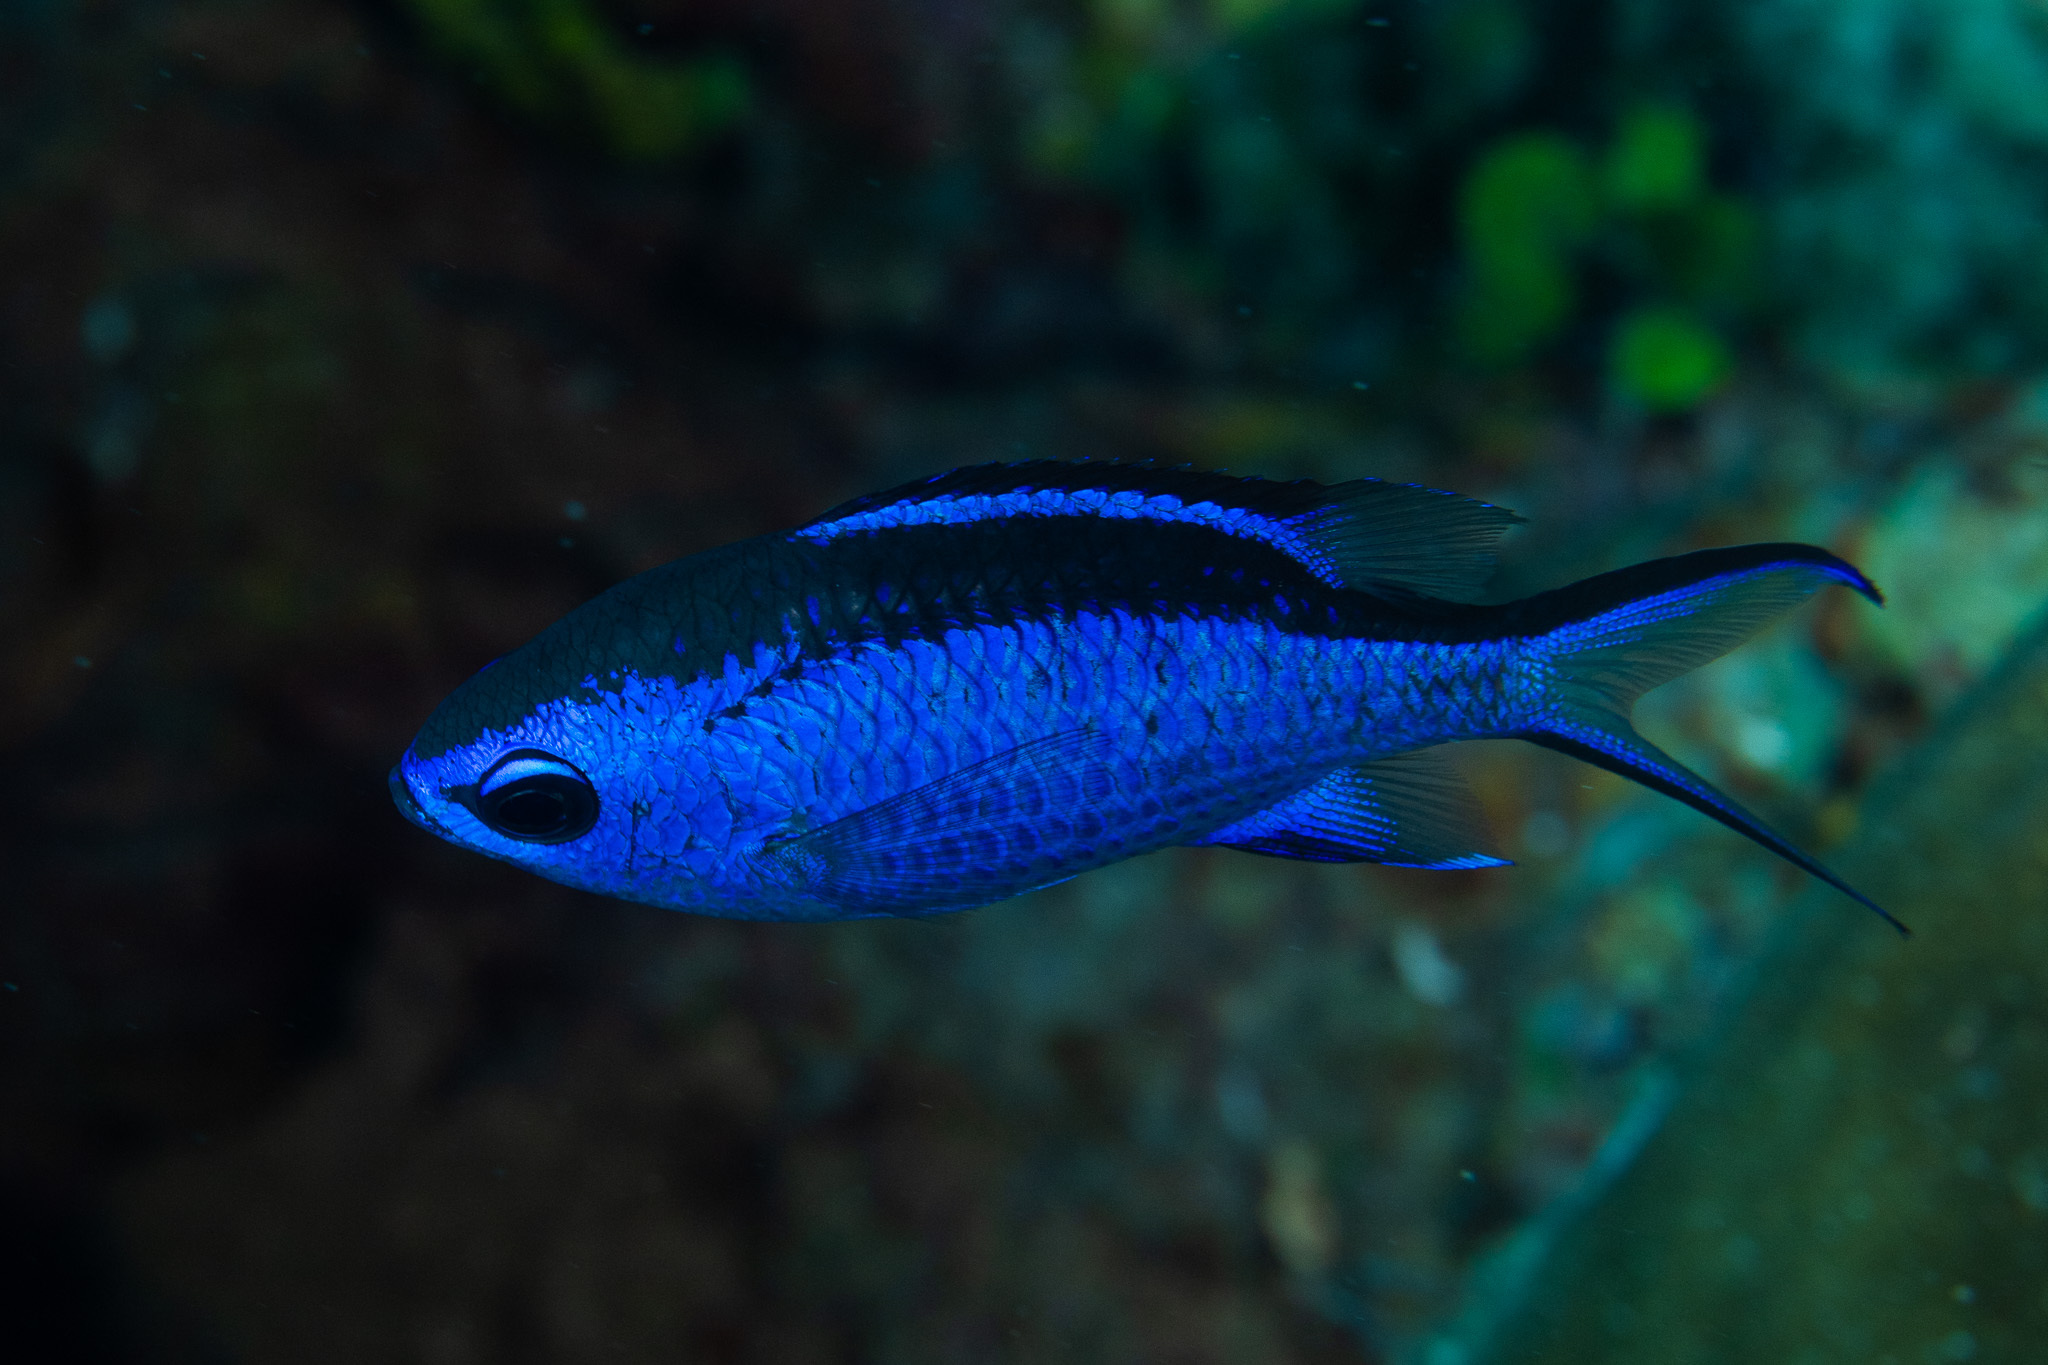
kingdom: Animalia
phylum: Chordata
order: Perciformes
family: Pomacentridae
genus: Chromis
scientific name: Chromis cyanea
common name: Blue chromis
